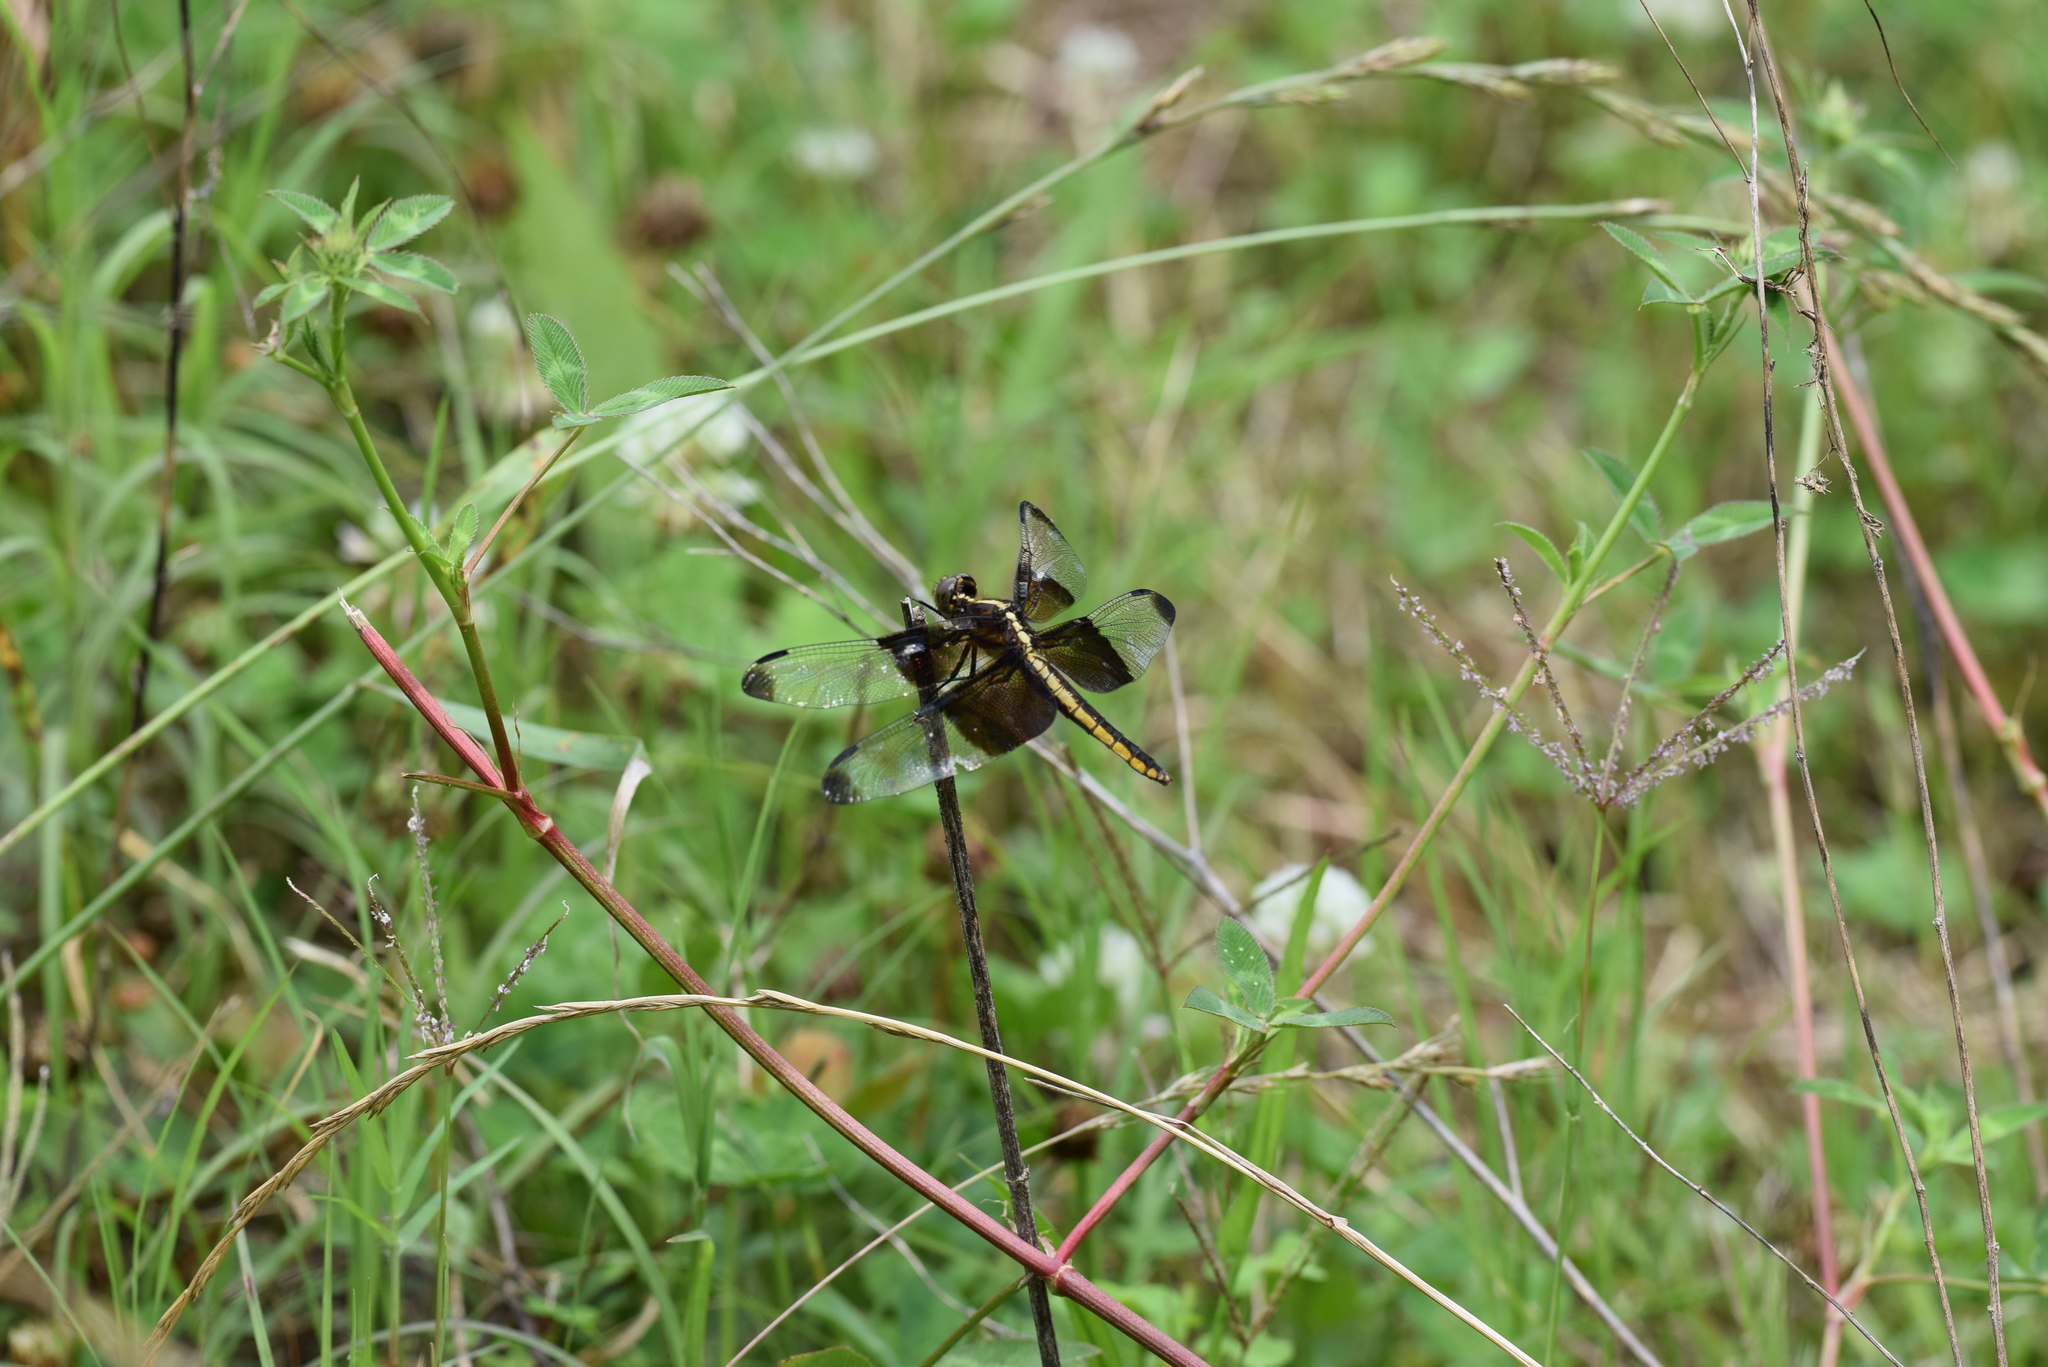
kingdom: Animalia
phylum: Arthropoda
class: Insecta
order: Odonata
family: Libellulidae
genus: Libellula
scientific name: Libellula luctuosa
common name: Widow skimmer
